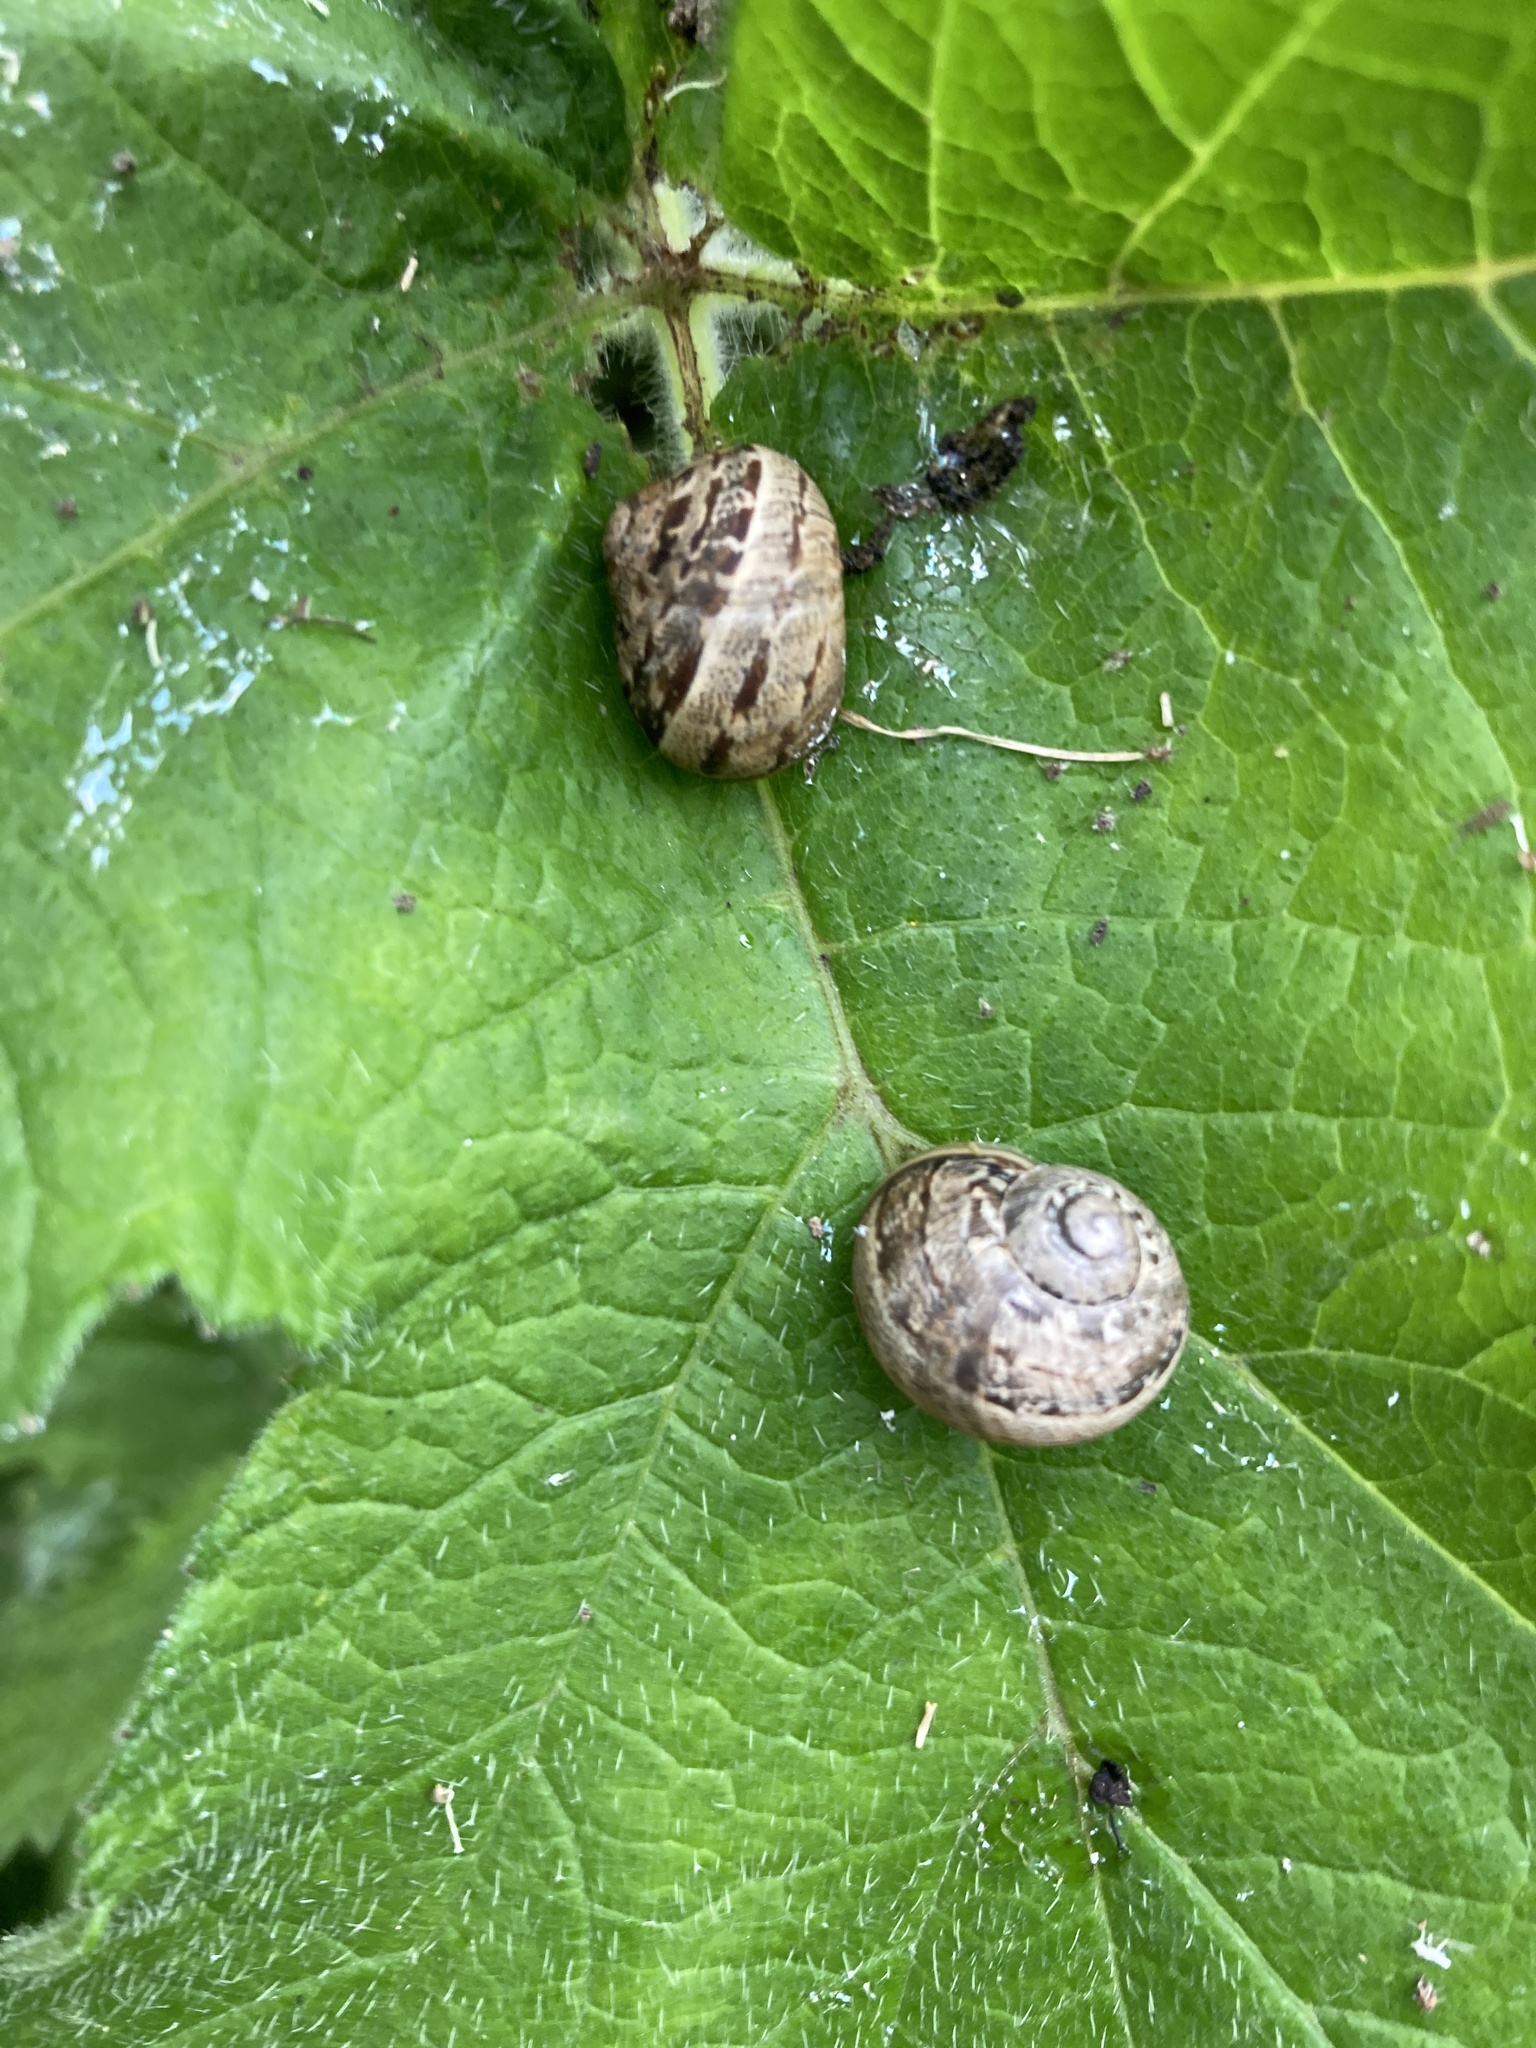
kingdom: Animalia
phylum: Mollusca
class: Gastropoda
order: Stylommatophora
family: Helicidae
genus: Cornu
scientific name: Cornu aspersum
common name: Brown garden snail
